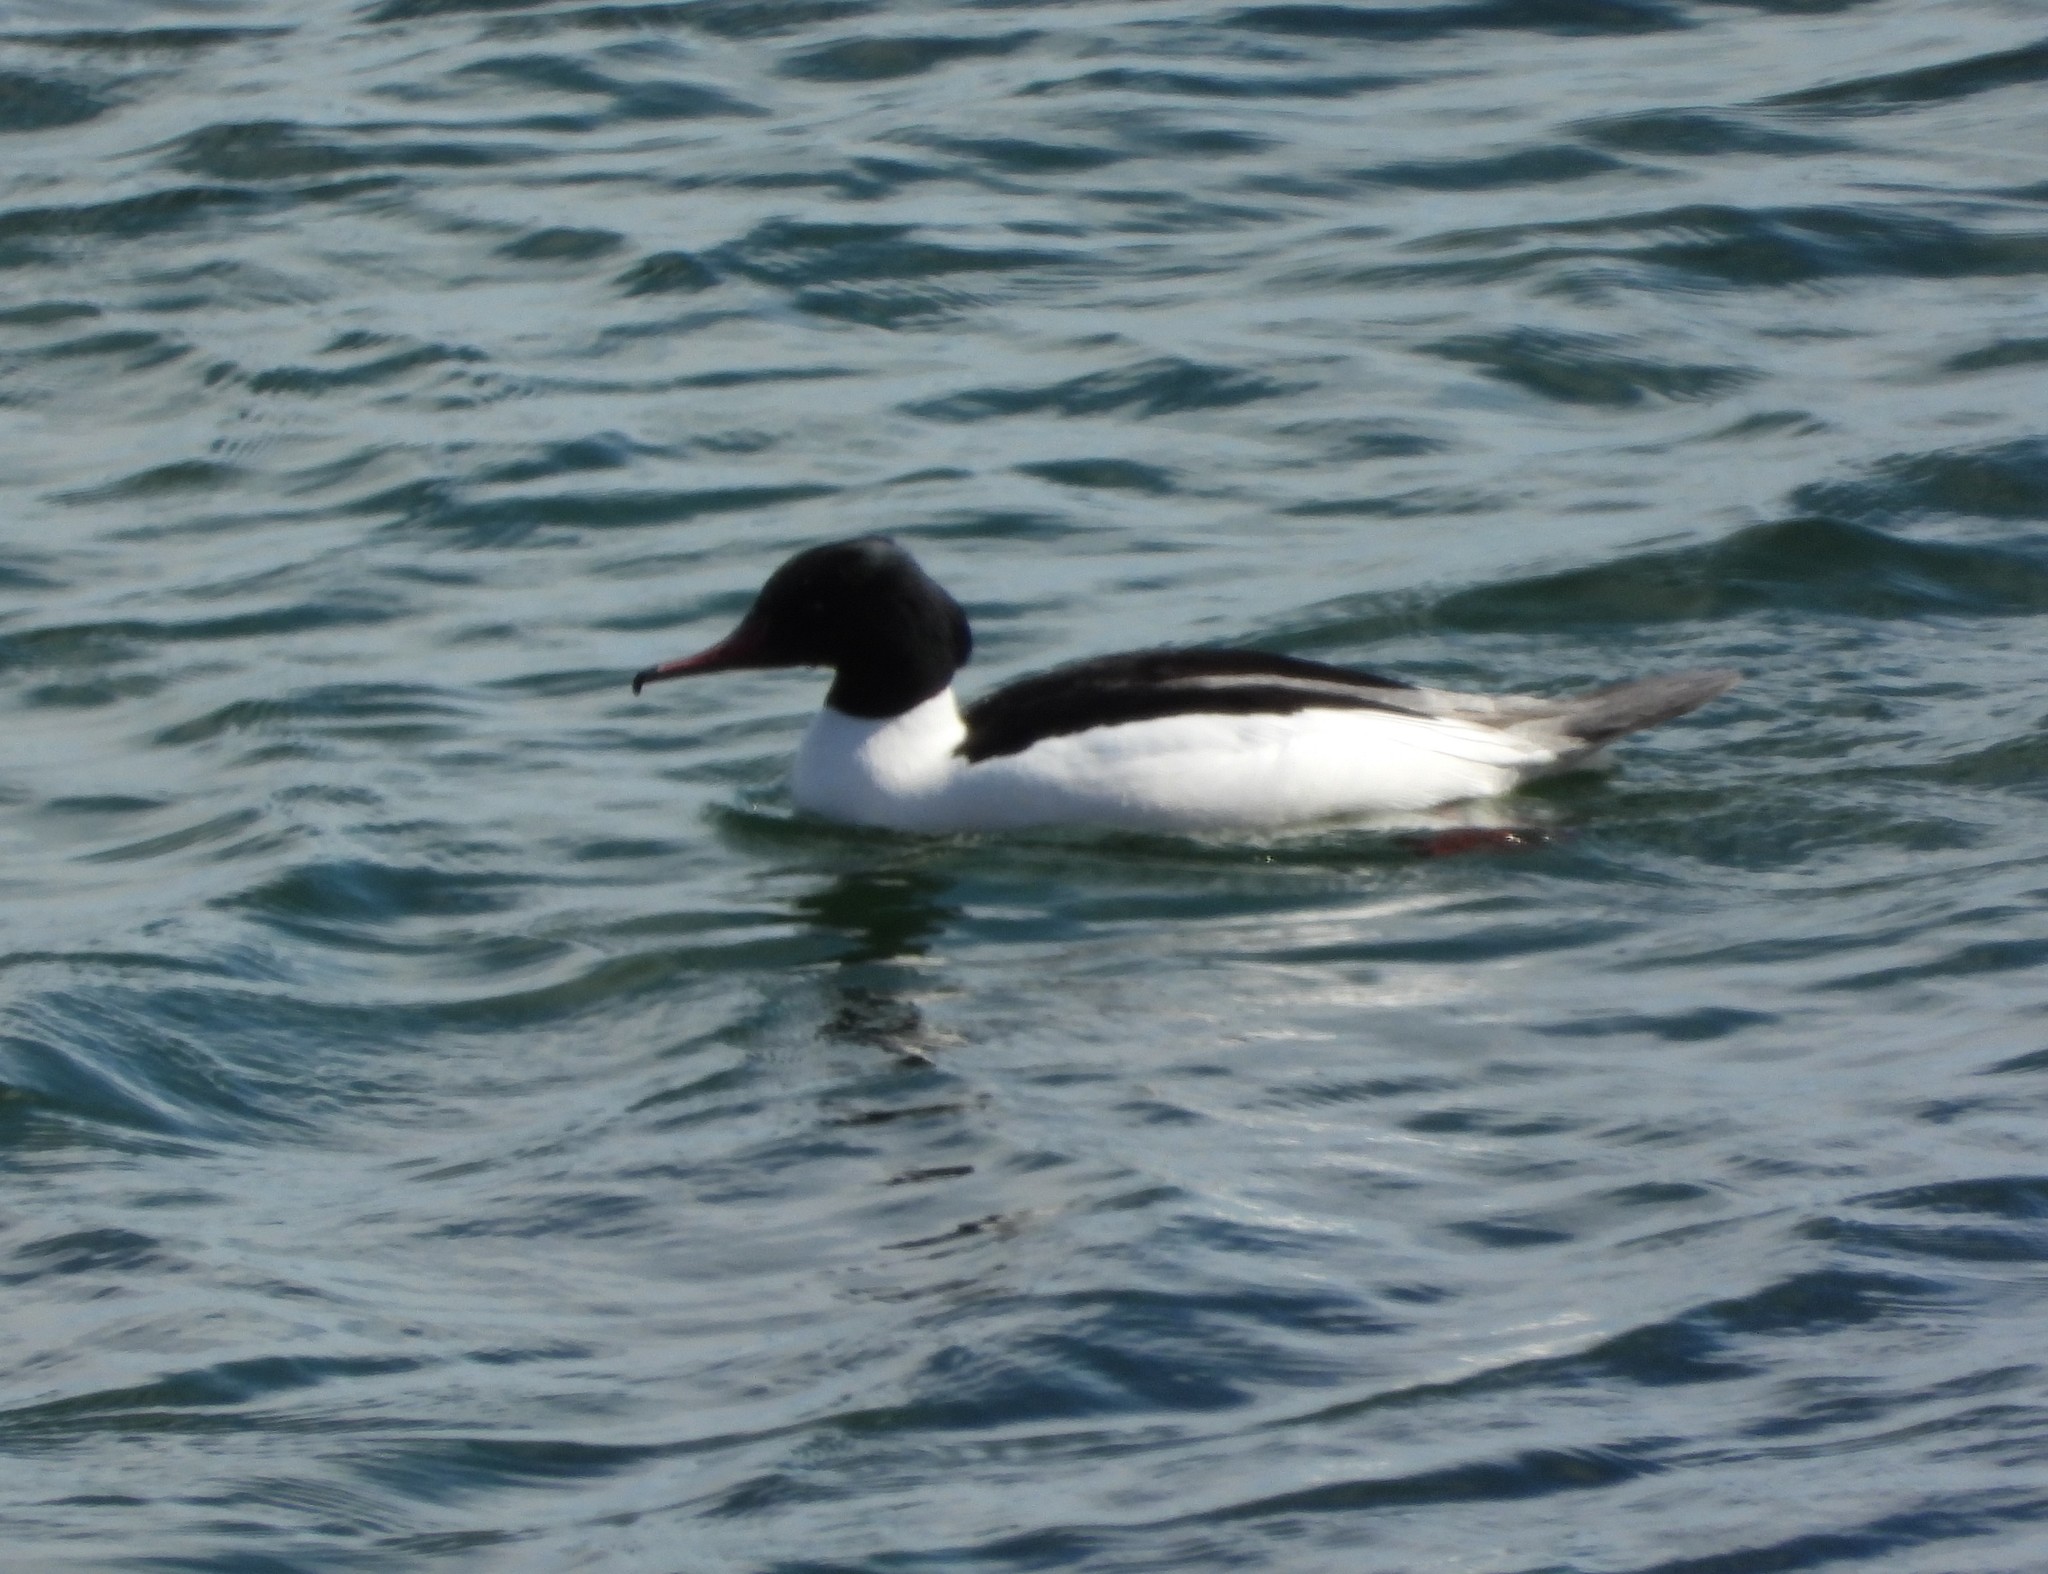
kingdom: Animalia
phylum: Chordata
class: Aves
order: Anseriformes
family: Anatidae
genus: Mergus
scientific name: Mergus merganser
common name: Common merganser
